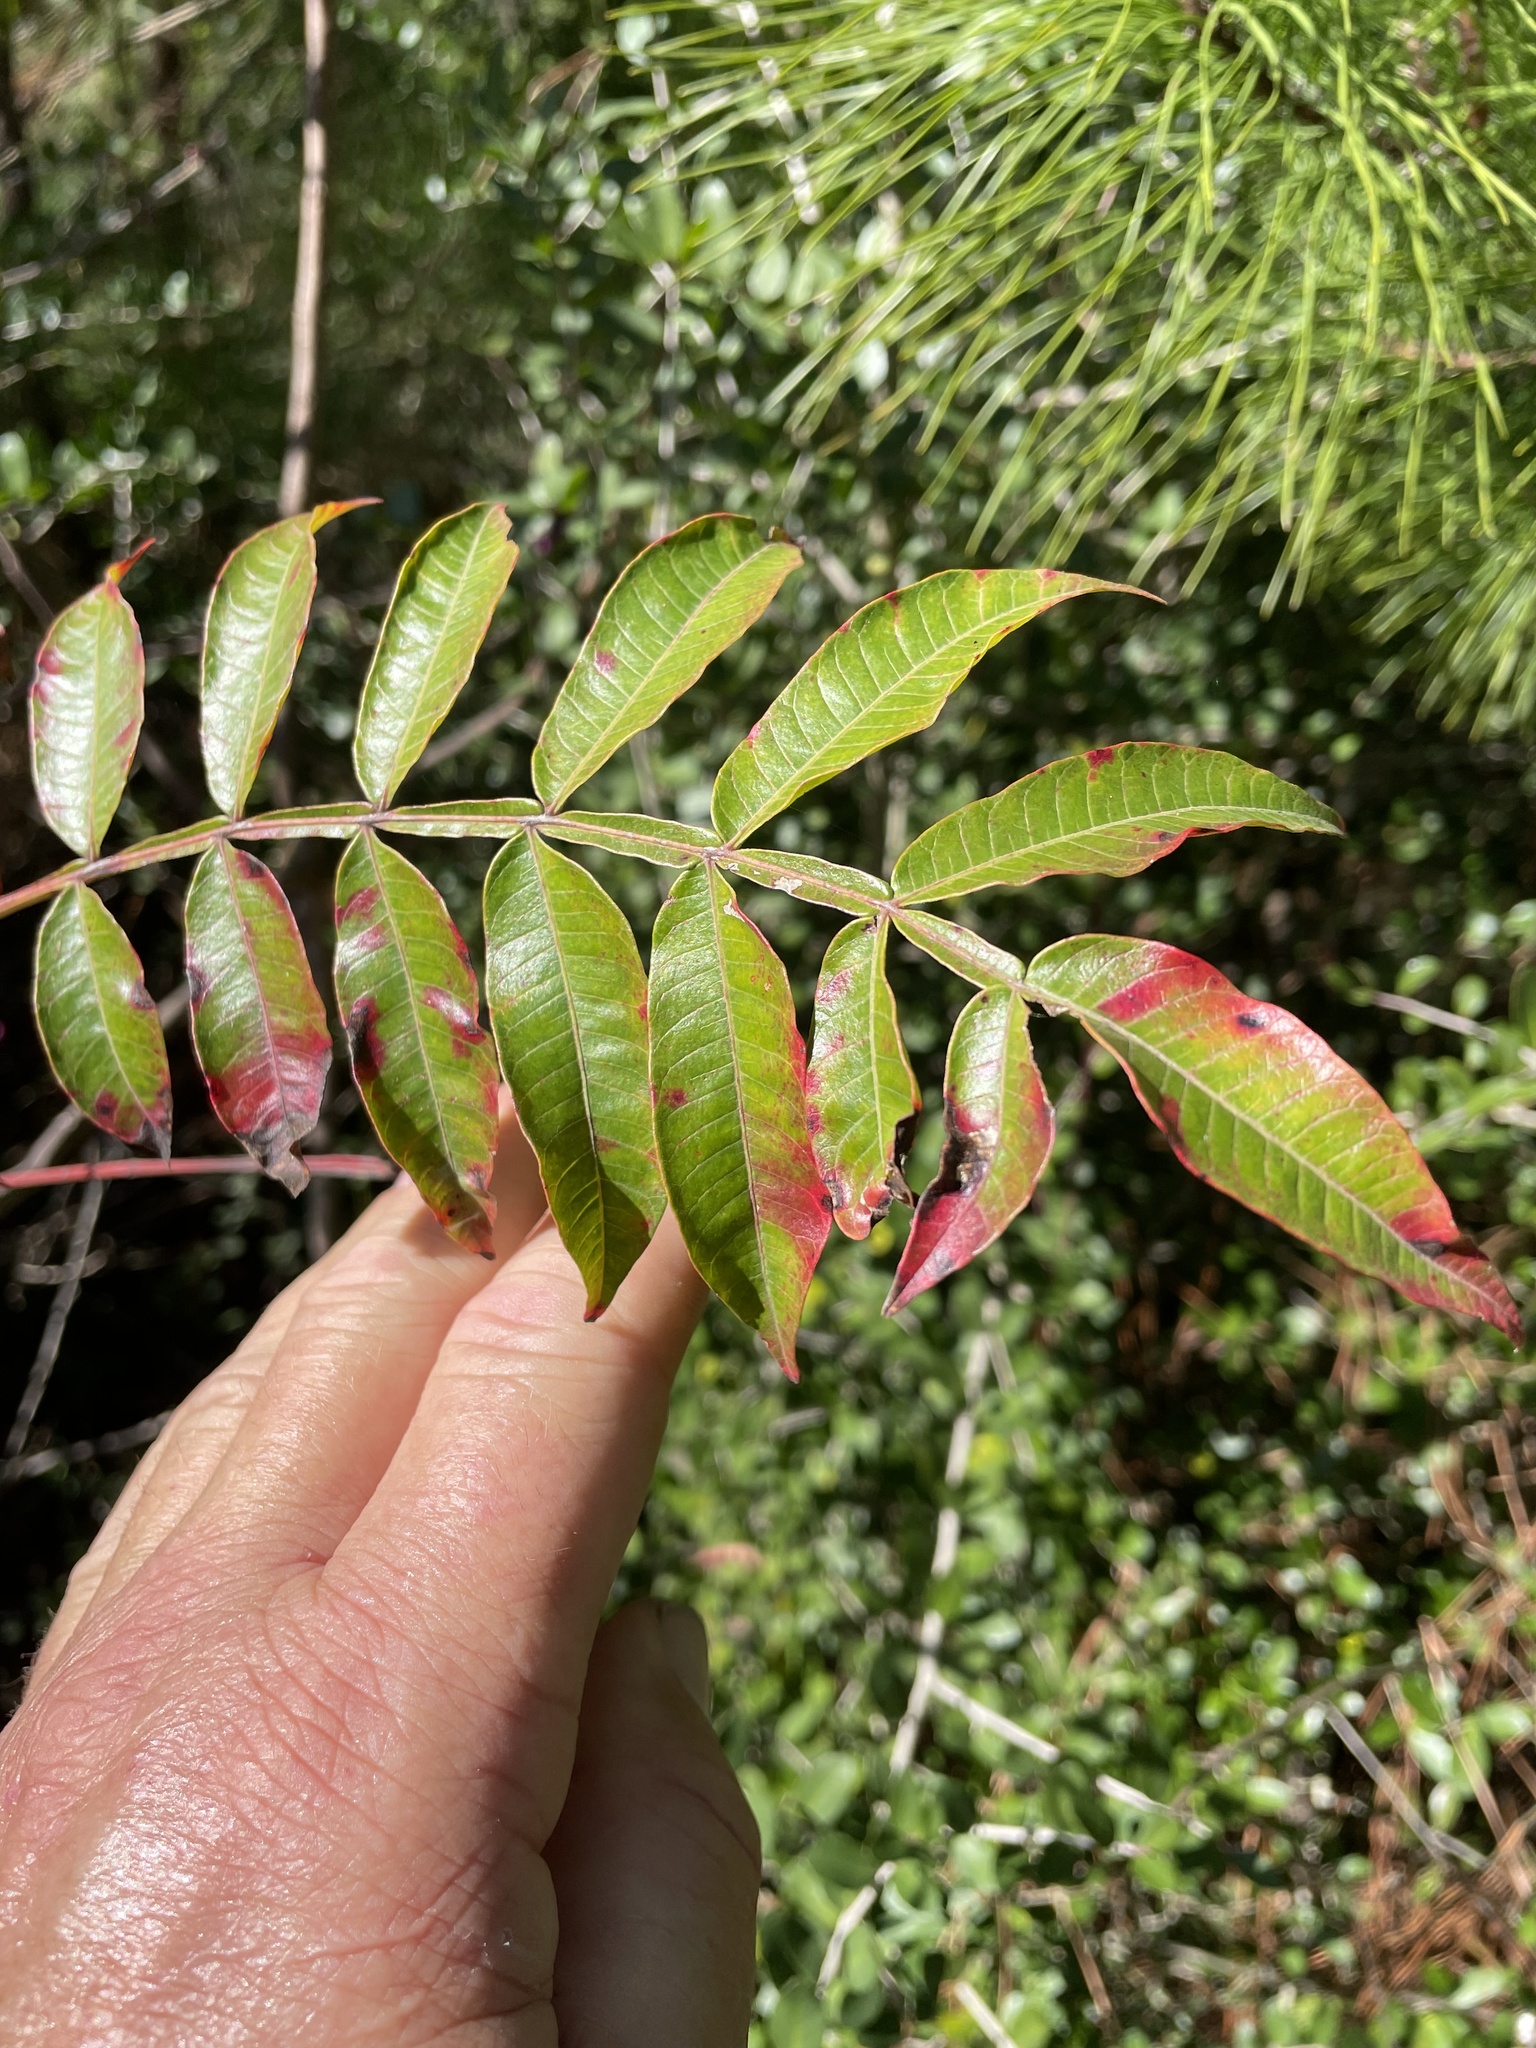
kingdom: Plantae
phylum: Tracheophyta
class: Magnoliopsida
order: Sapindales
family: Anacardiaceae
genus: Rhus
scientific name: Rhus copallina
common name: Shining sumac
